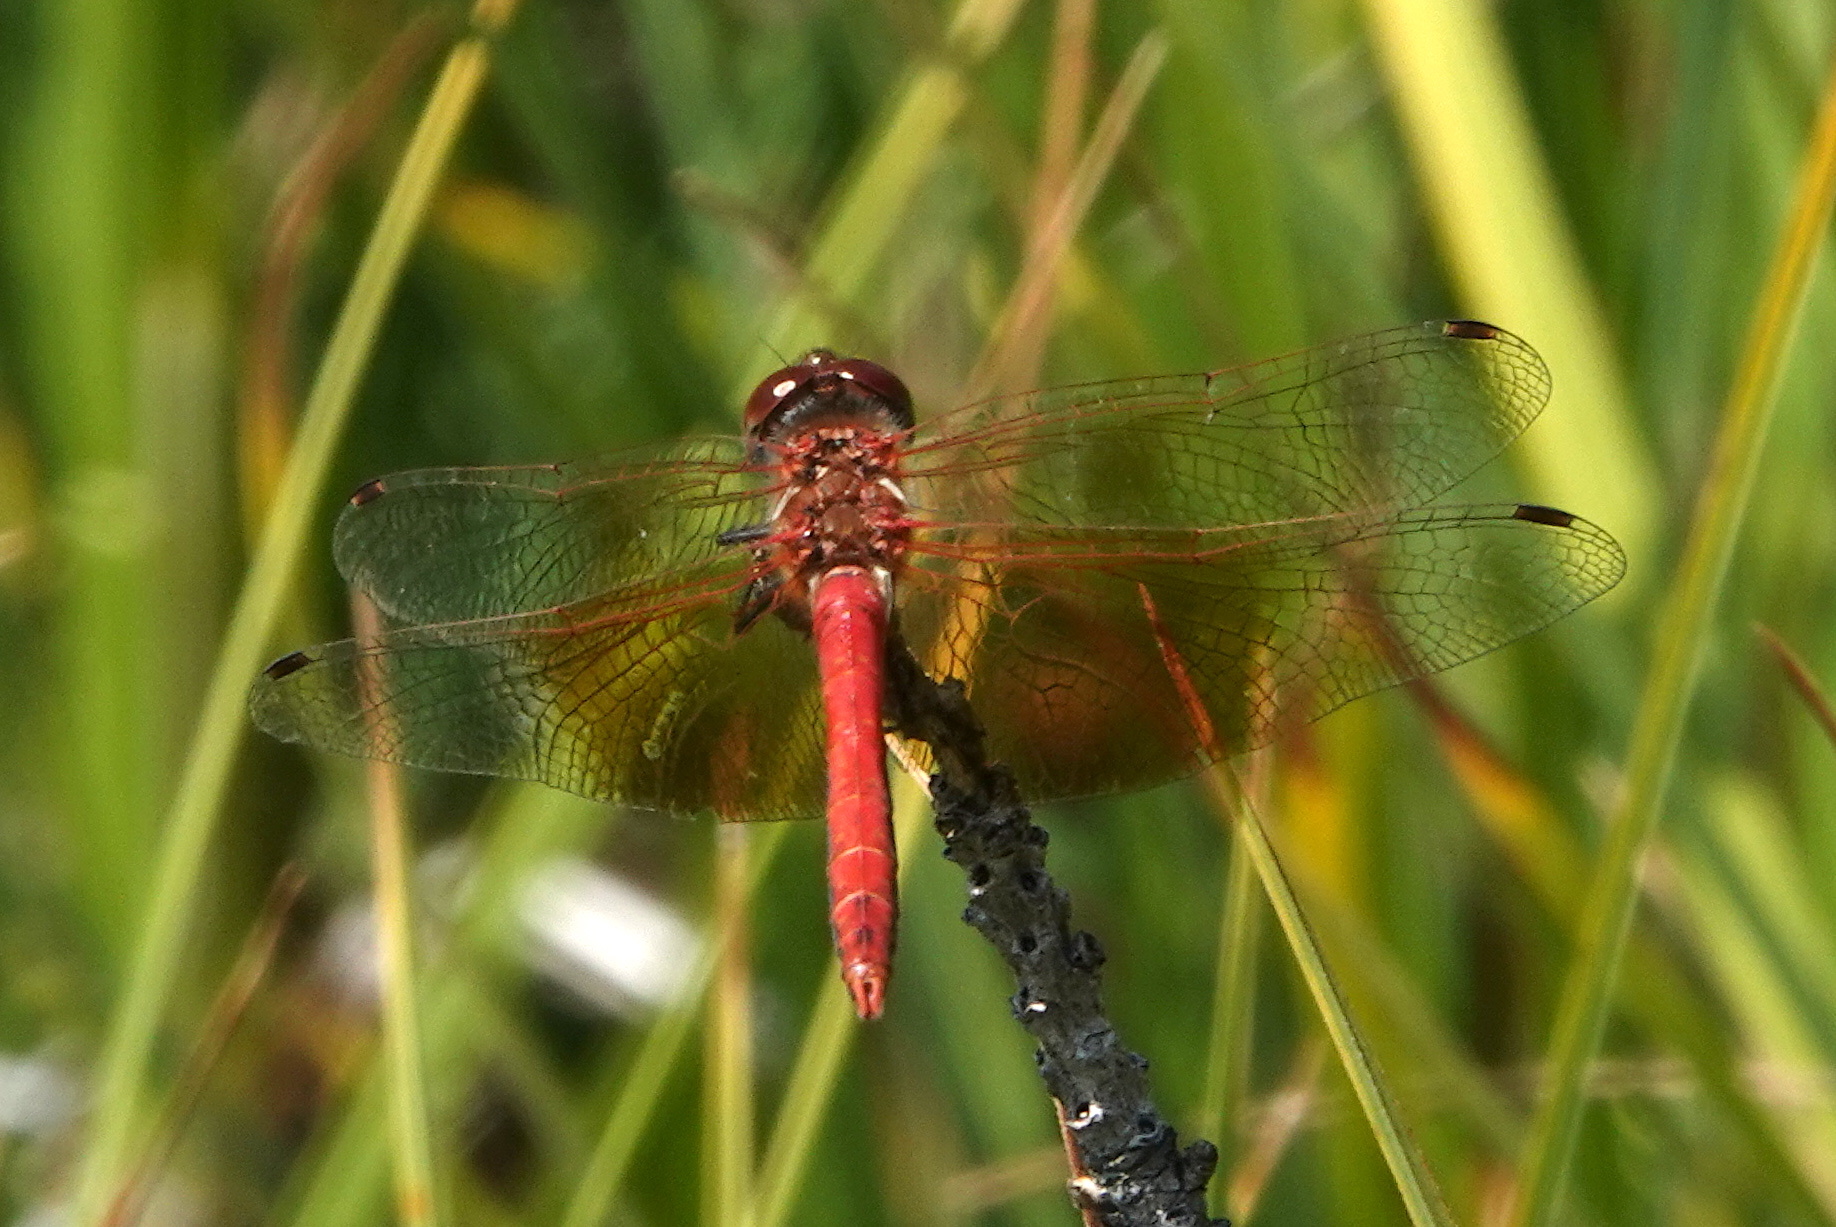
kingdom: Animalia
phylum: Arthropoda
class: Insecta
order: Odonata
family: Libellulidae
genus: Sympetrum
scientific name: Sympetrum semicinctum
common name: Band-winged meadowhawk
